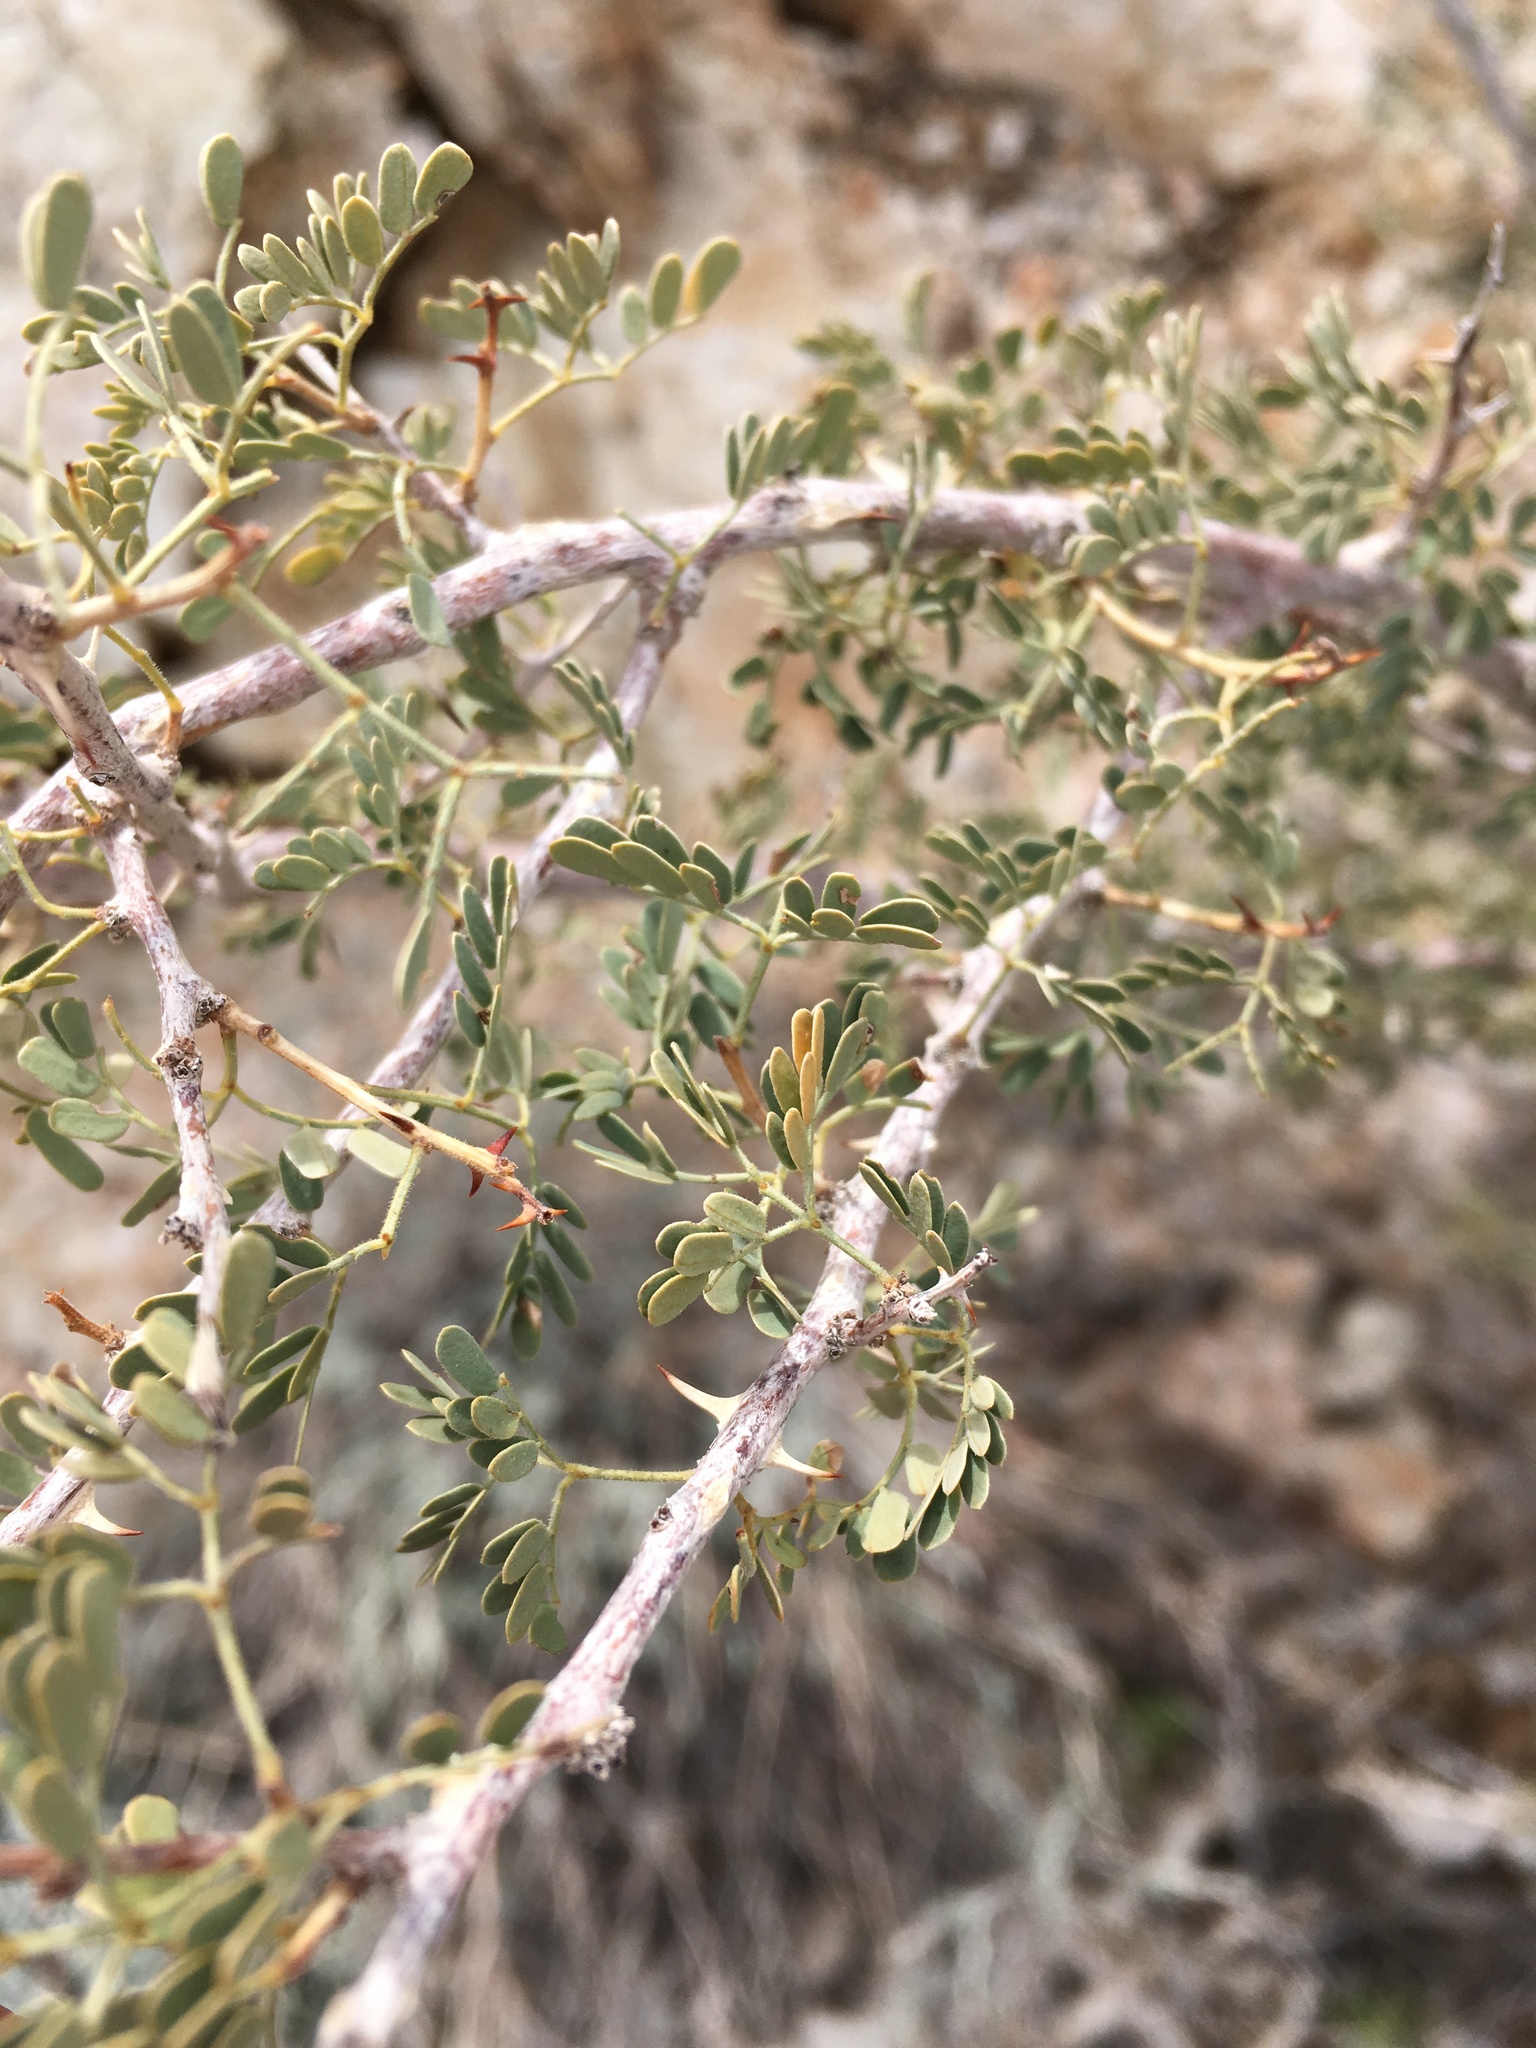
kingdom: Plantae
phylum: Tracheophyta
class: Magnoliopsida
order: Fabales
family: Fabaceae
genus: Senegalia
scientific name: Senegalia greggii
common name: Texas-mimosa
